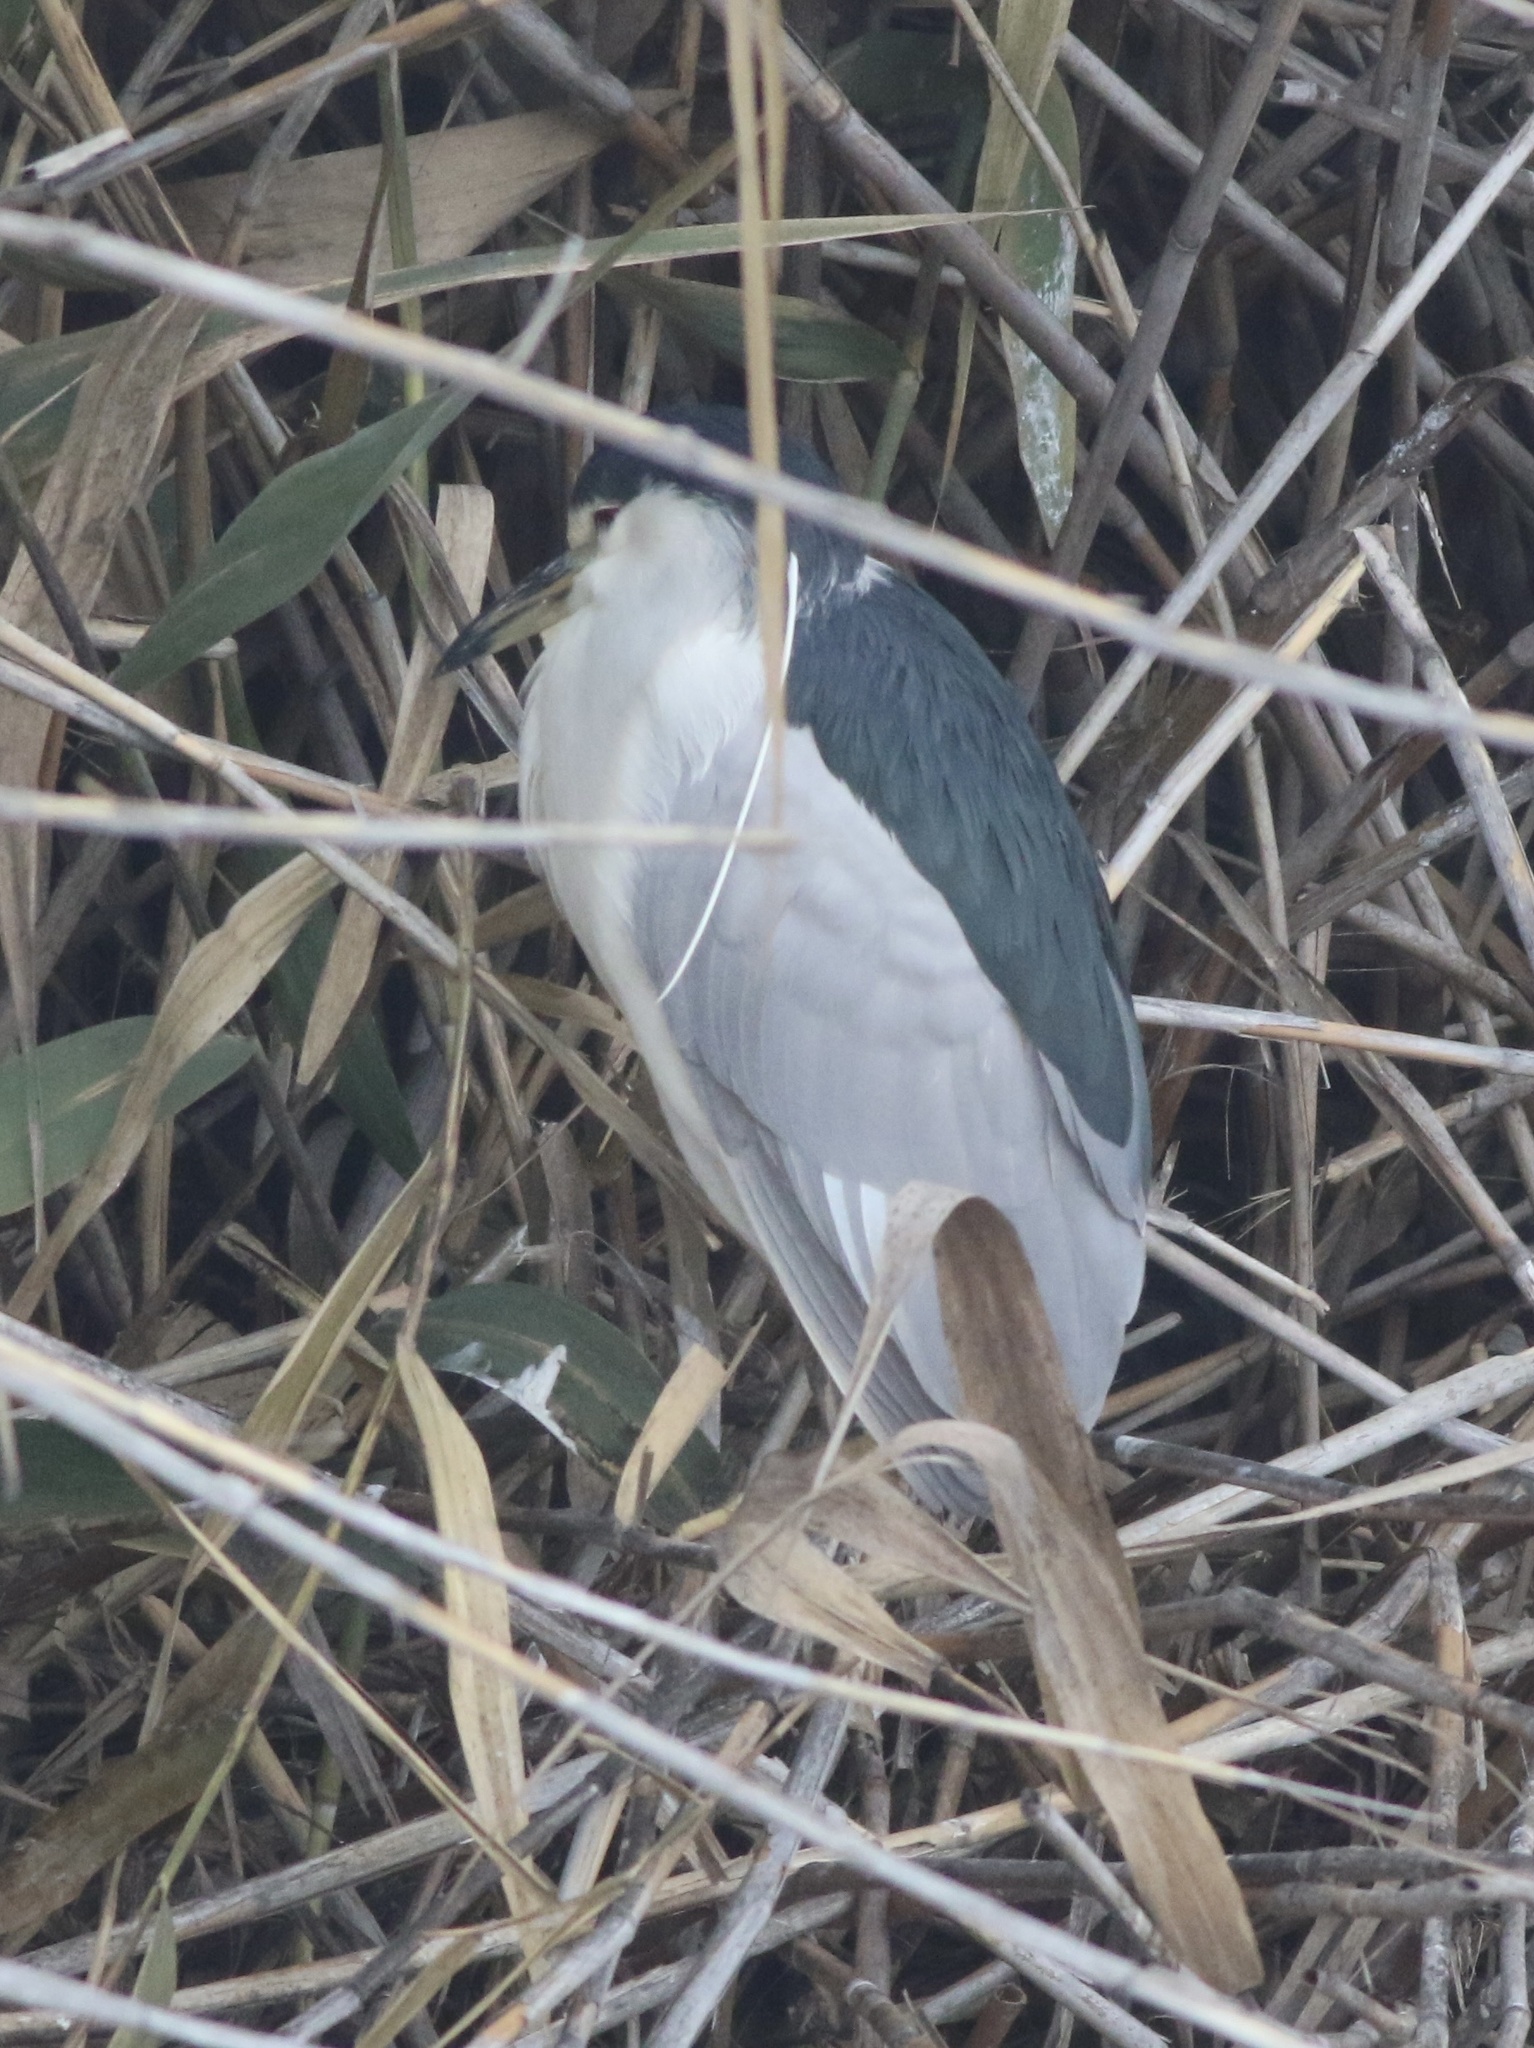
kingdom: Animalia
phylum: Chordata
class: Aves
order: Pelecaniformes
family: Ardeidae
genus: Nycticorax
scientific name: Nycticorax nycticorax
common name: Black-crowned night heron
